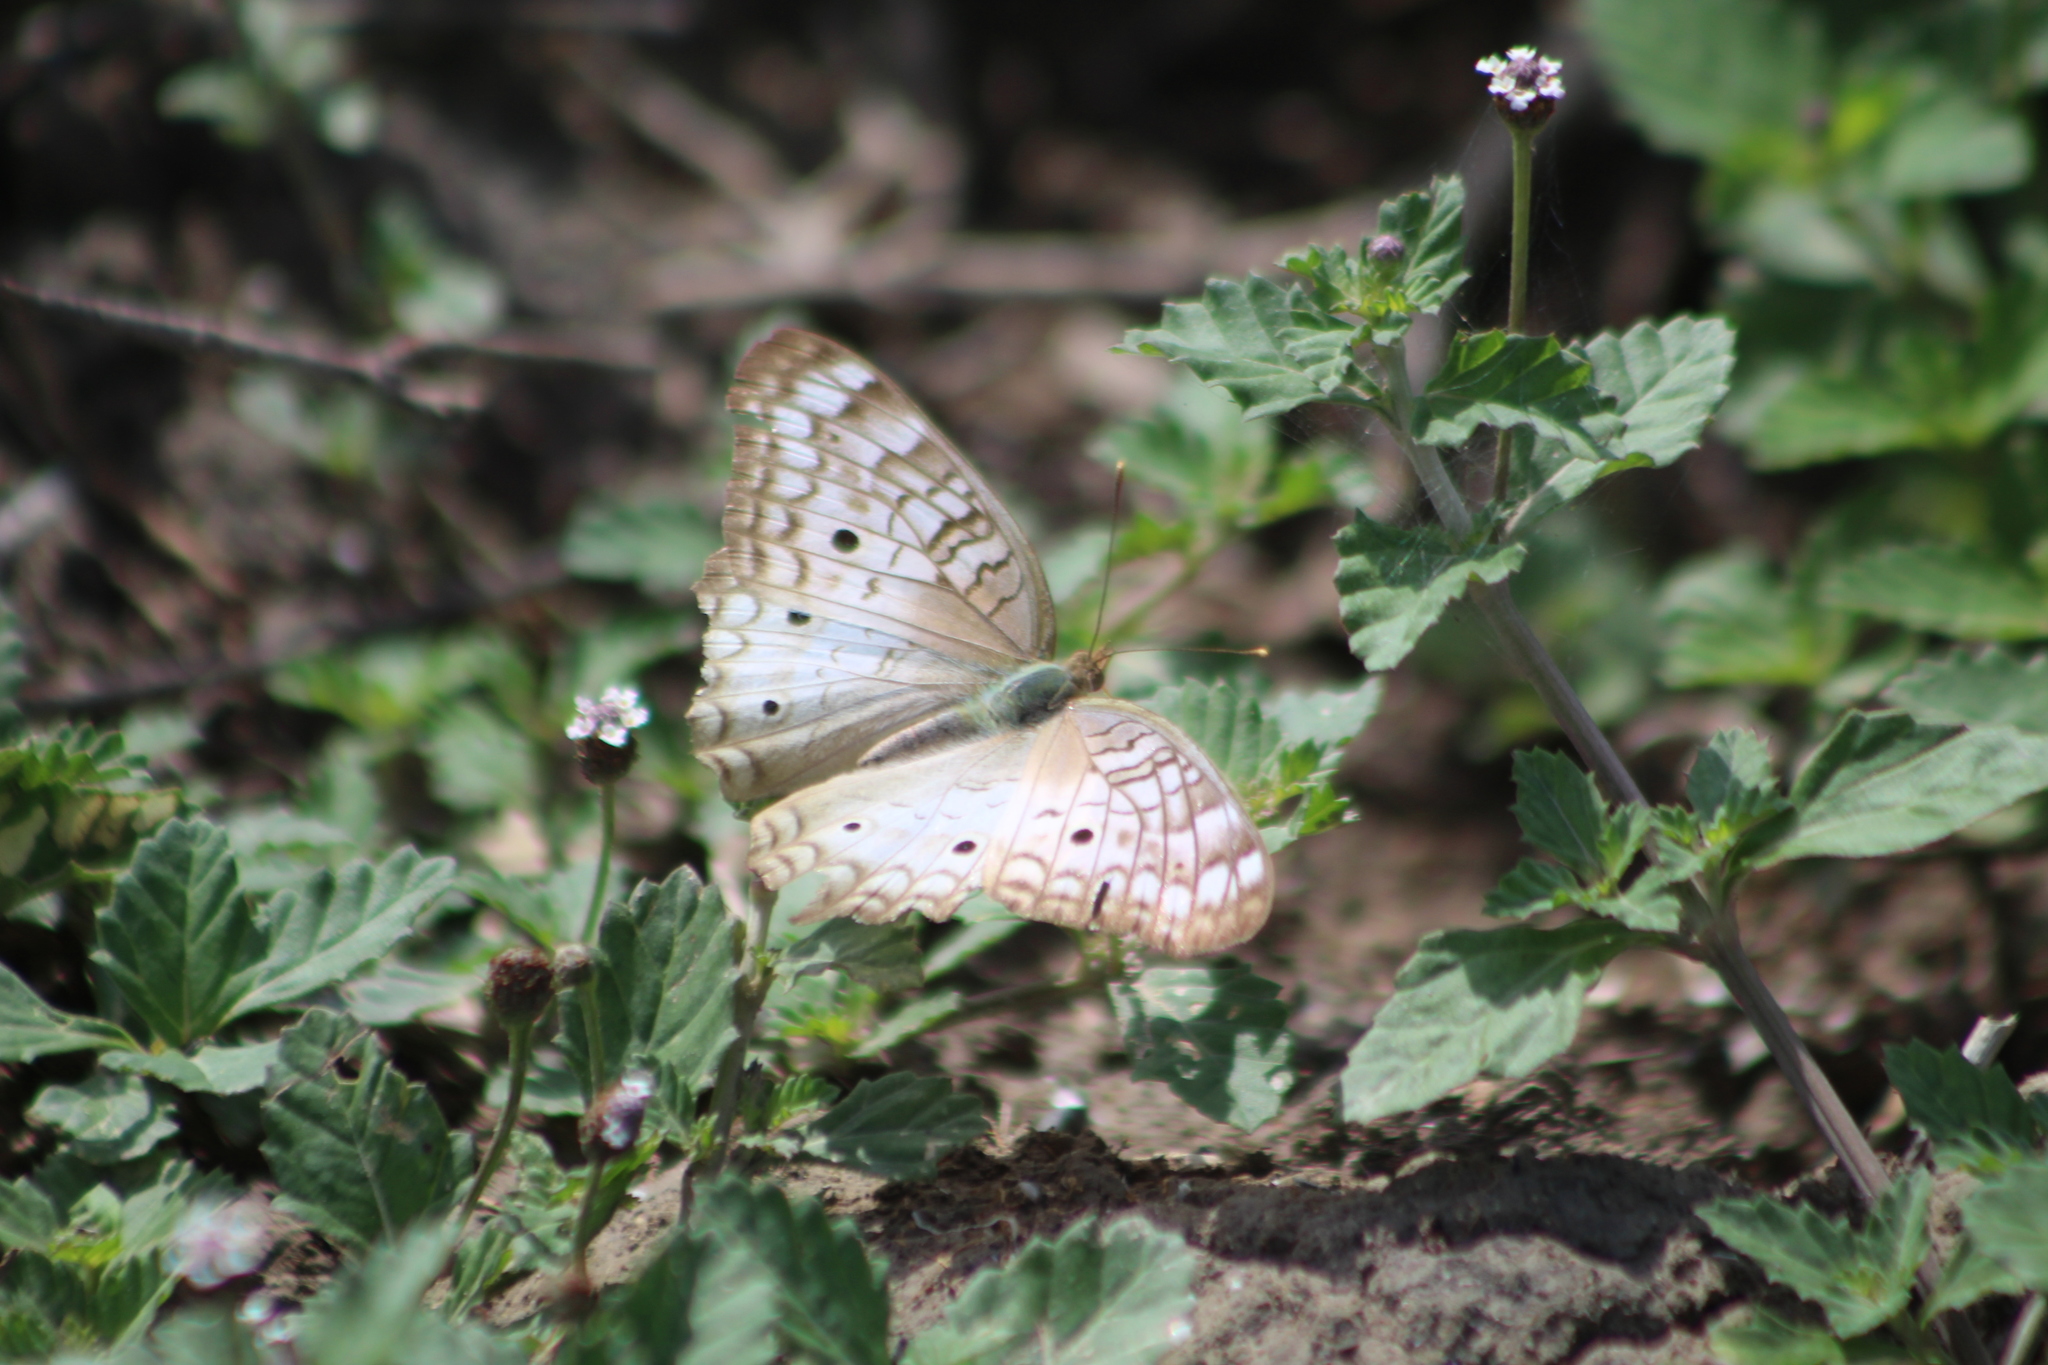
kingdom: Animalia
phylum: Arthropoda
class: Insecta
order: Lepidoptera
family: Nymphalidae
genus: Anartia
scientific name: Anartia jatrophae
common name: White peacock
